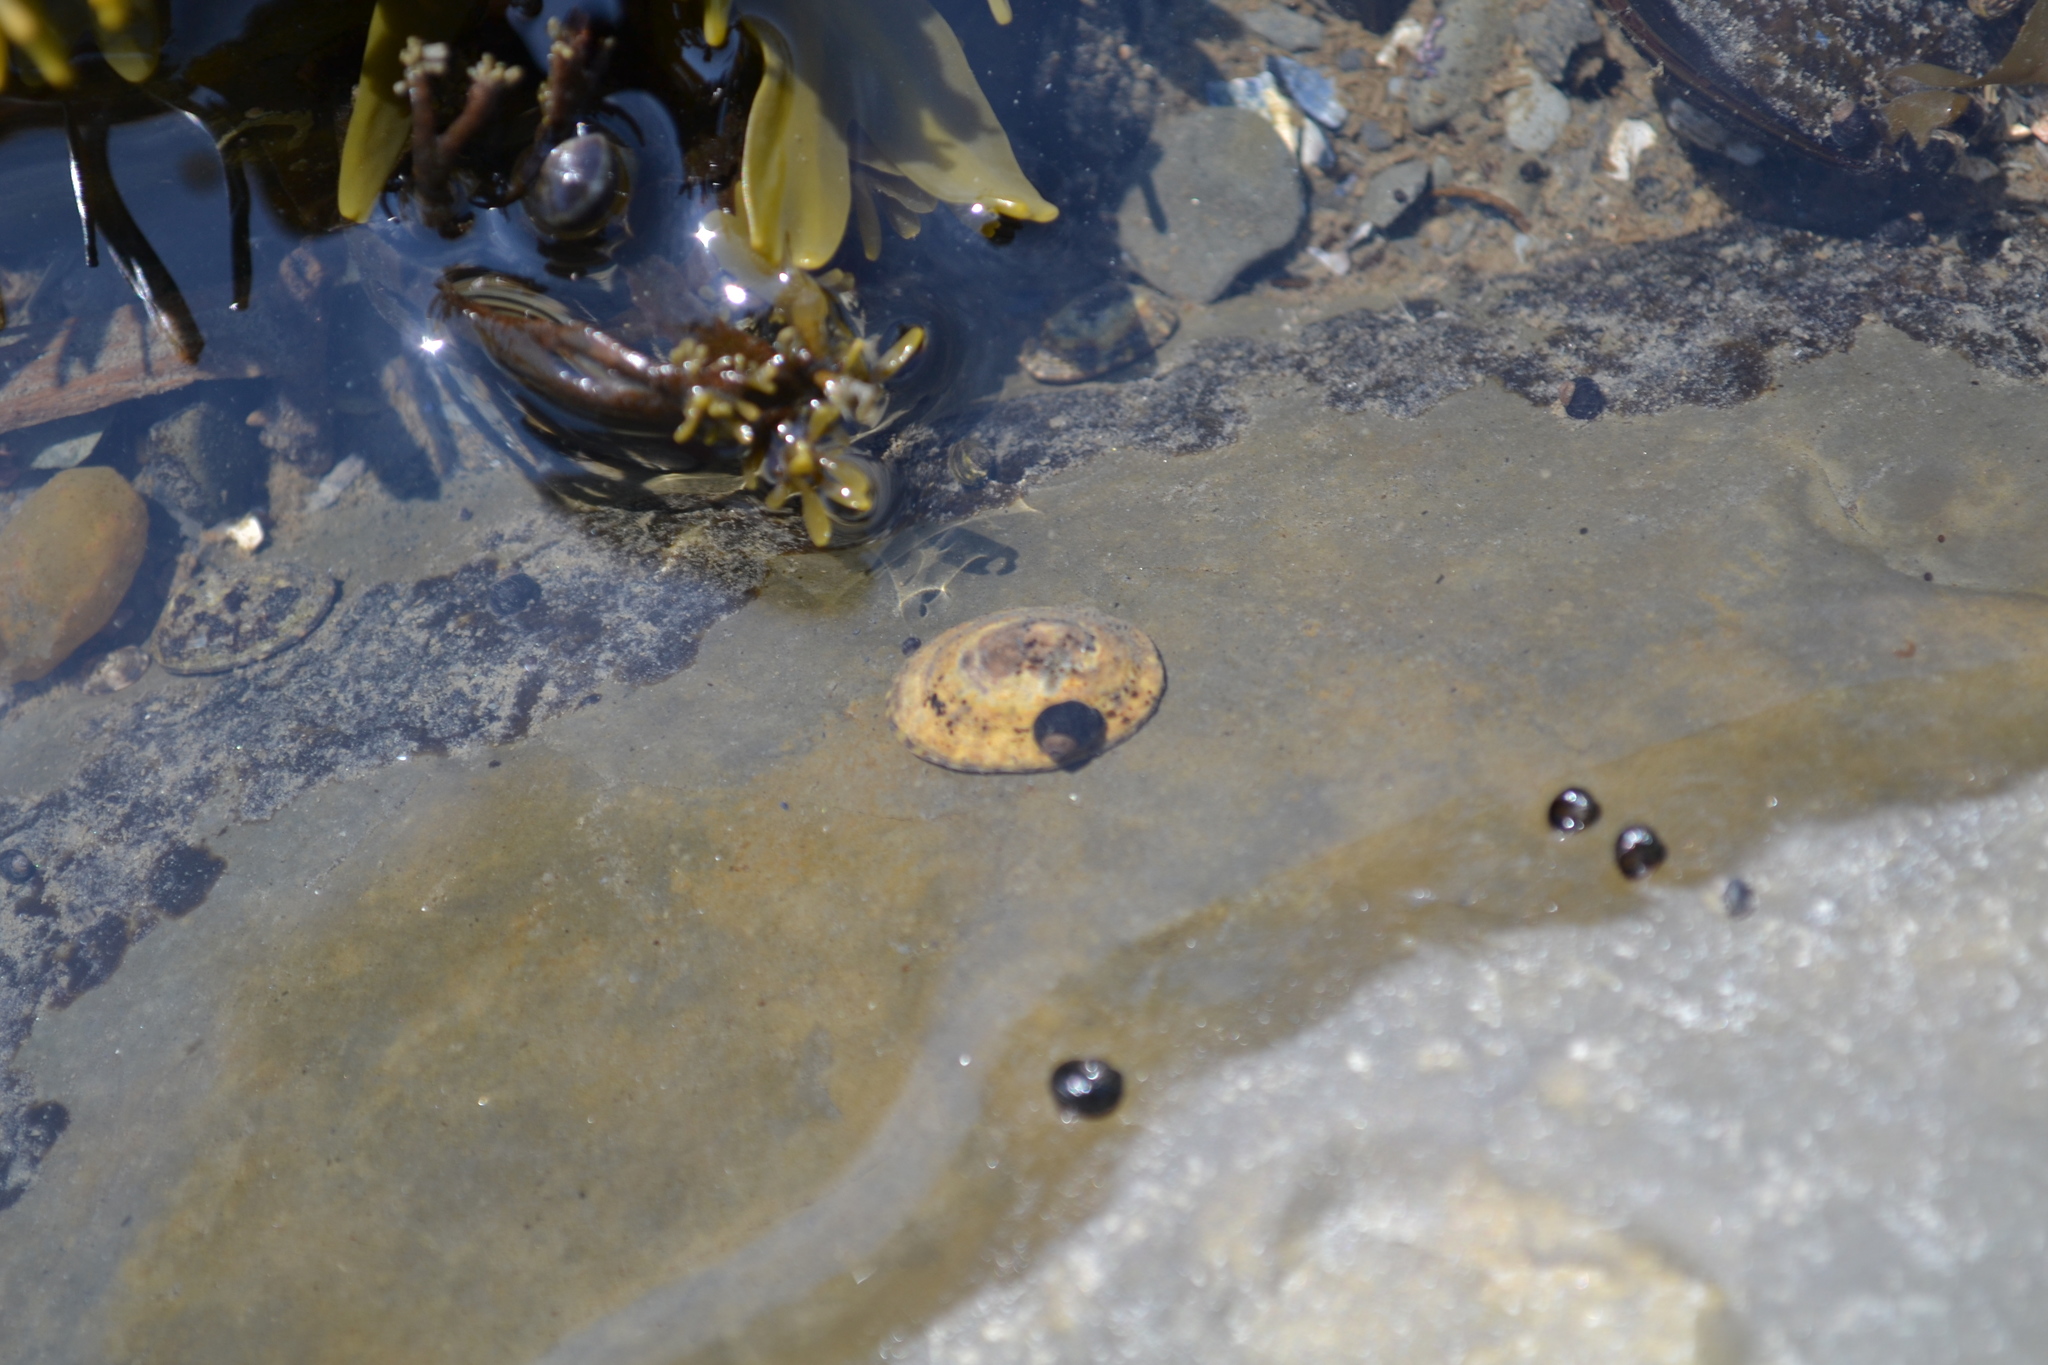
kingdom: Animalia
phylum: Mollusca
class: Gastropoda
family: Lottiidae
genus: Testudinalia
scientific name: Testudinalia testudinalis
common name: Common tortoiseshell limpet
